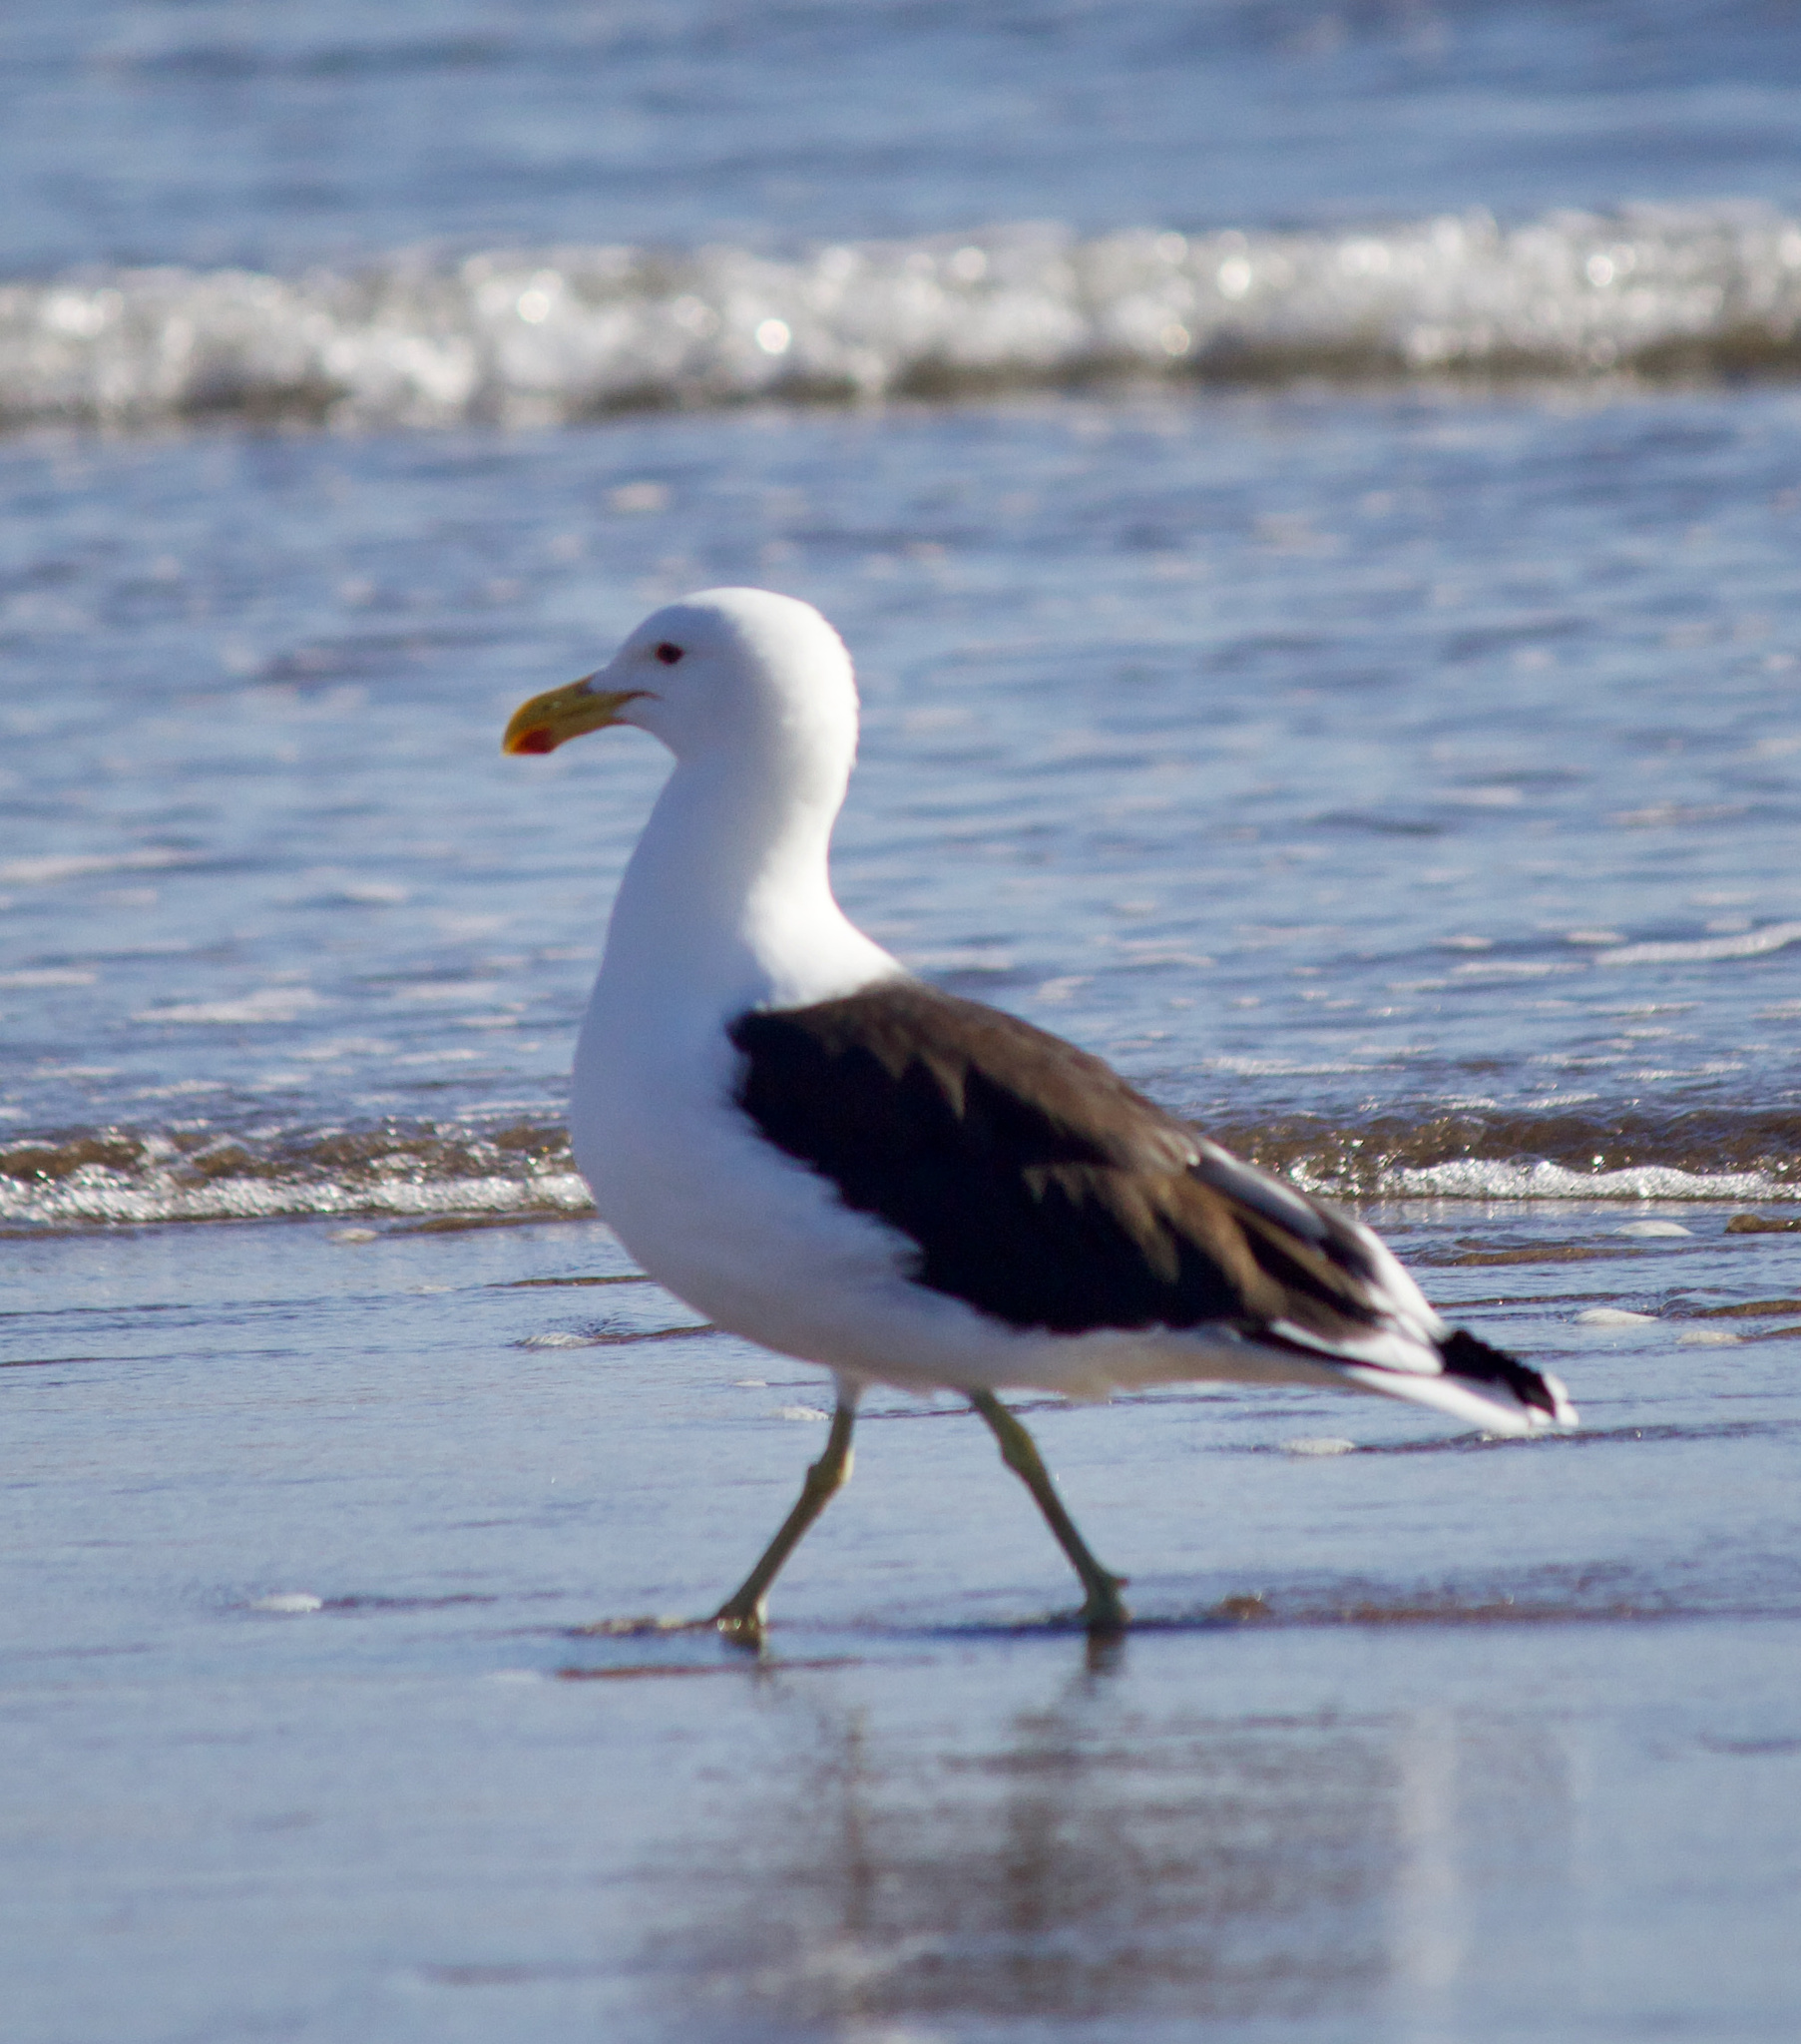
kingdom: Animalia
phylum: Chordata
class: Aves
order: Charadriiformes
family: Laridae
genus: Larus
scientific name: Larus dominicanus
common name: Kelp gull
